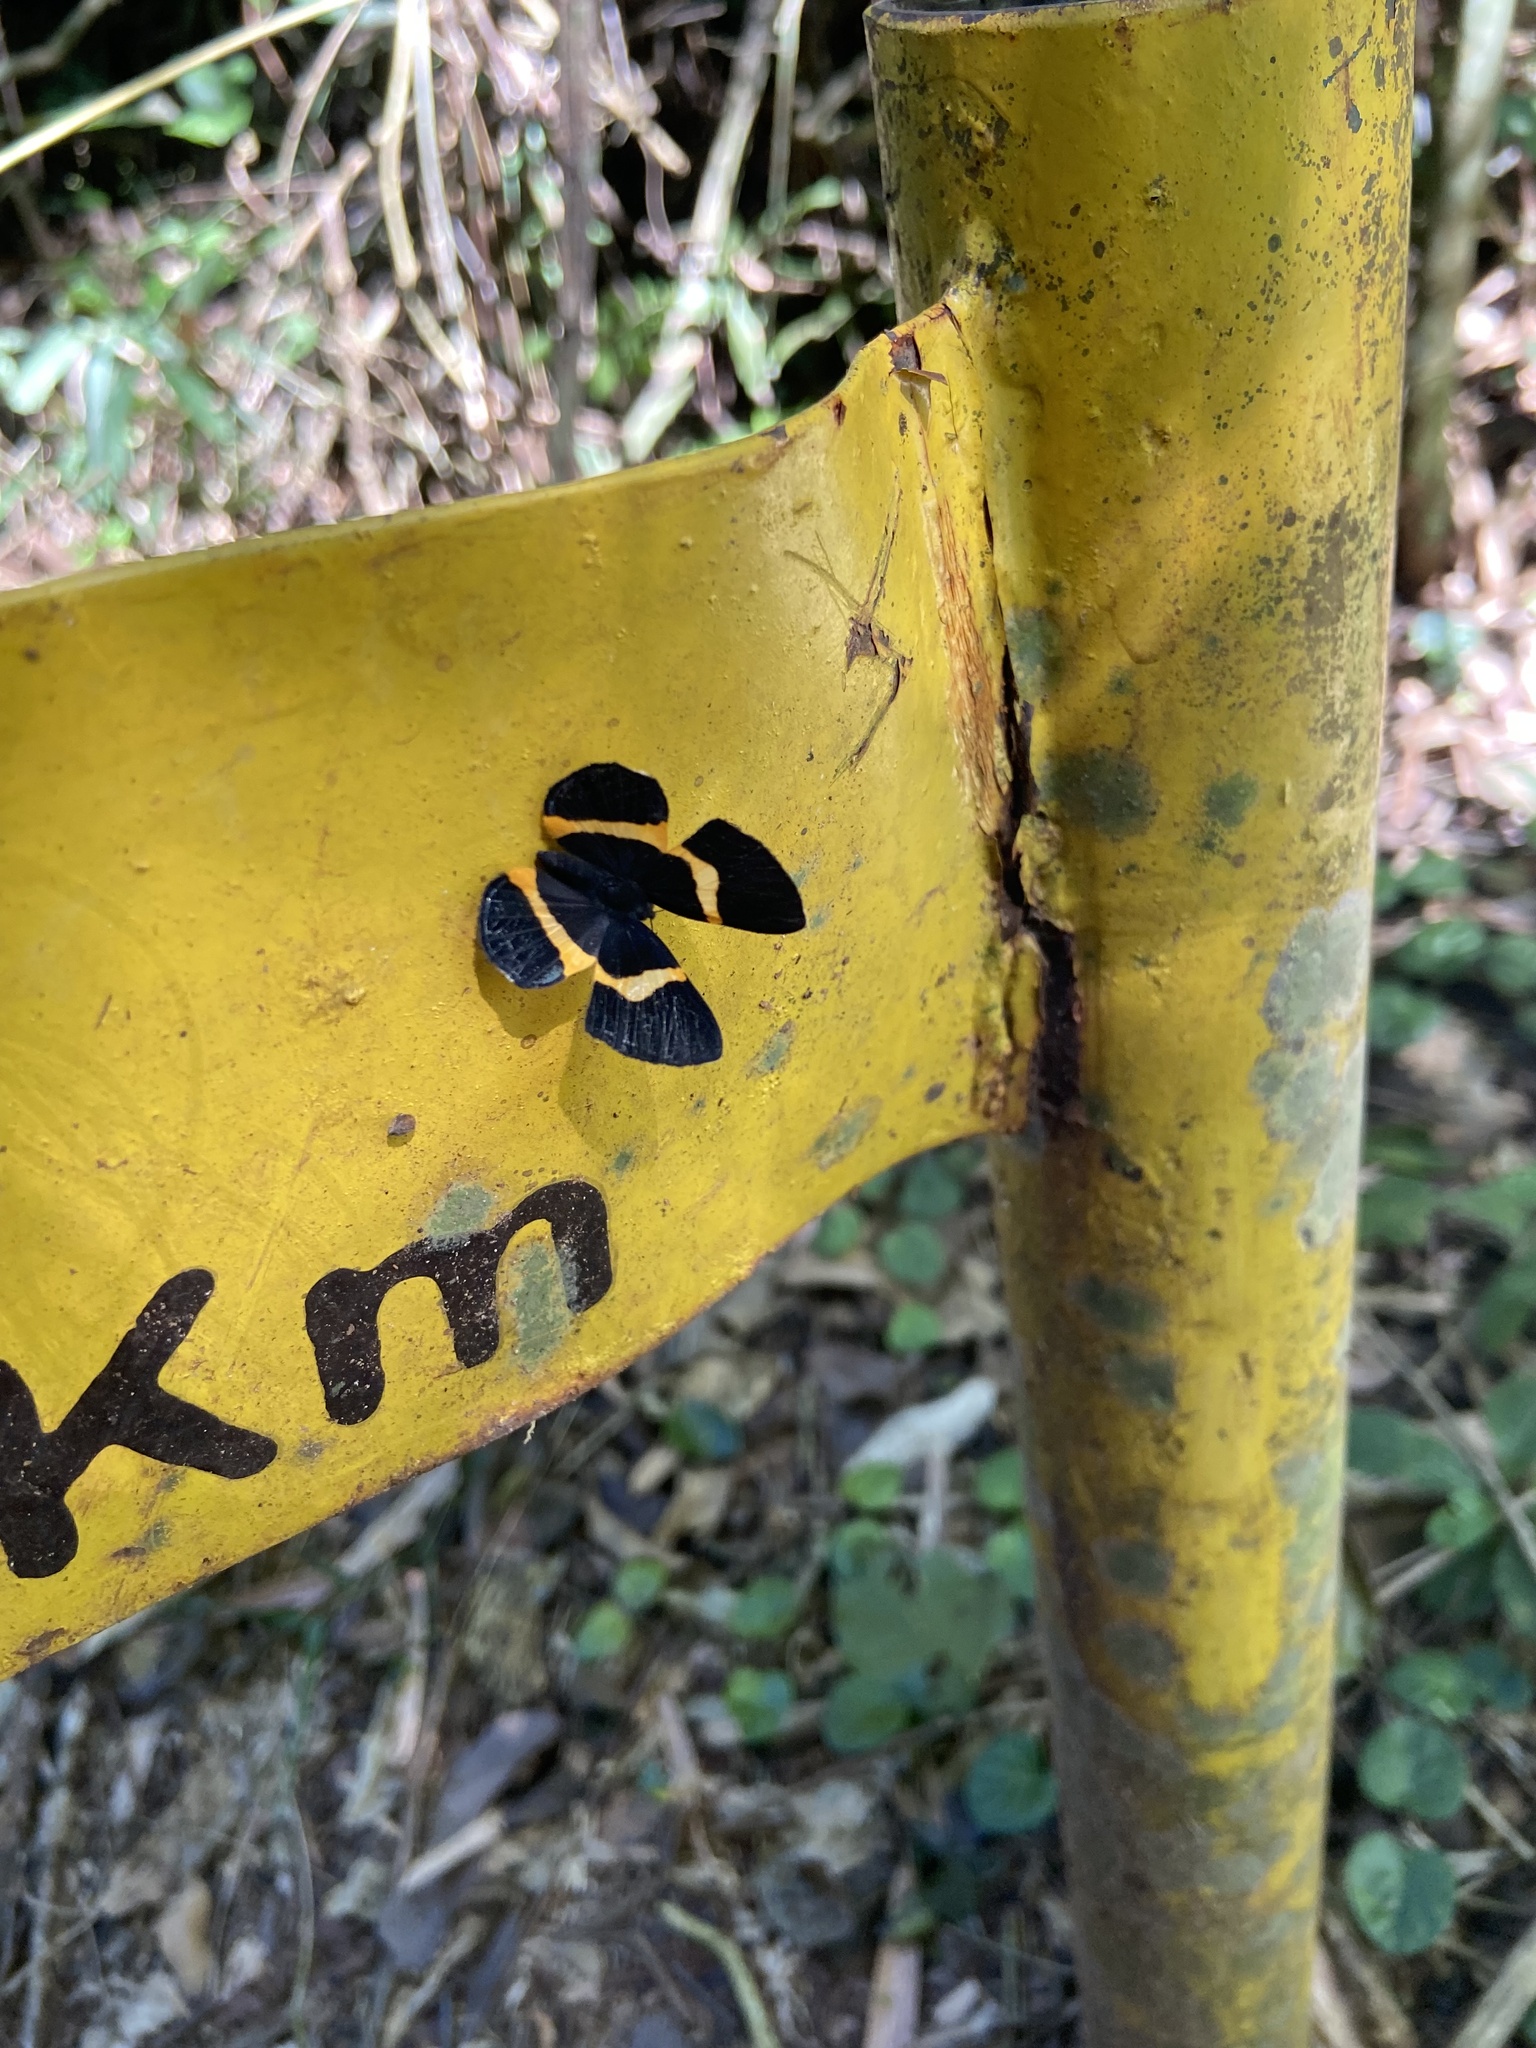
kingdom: Animalia
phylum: Arthropoda
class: Insecta
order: Lepidoptera
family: Riodinidae
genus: Notheme
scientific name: Notheme eumeus
